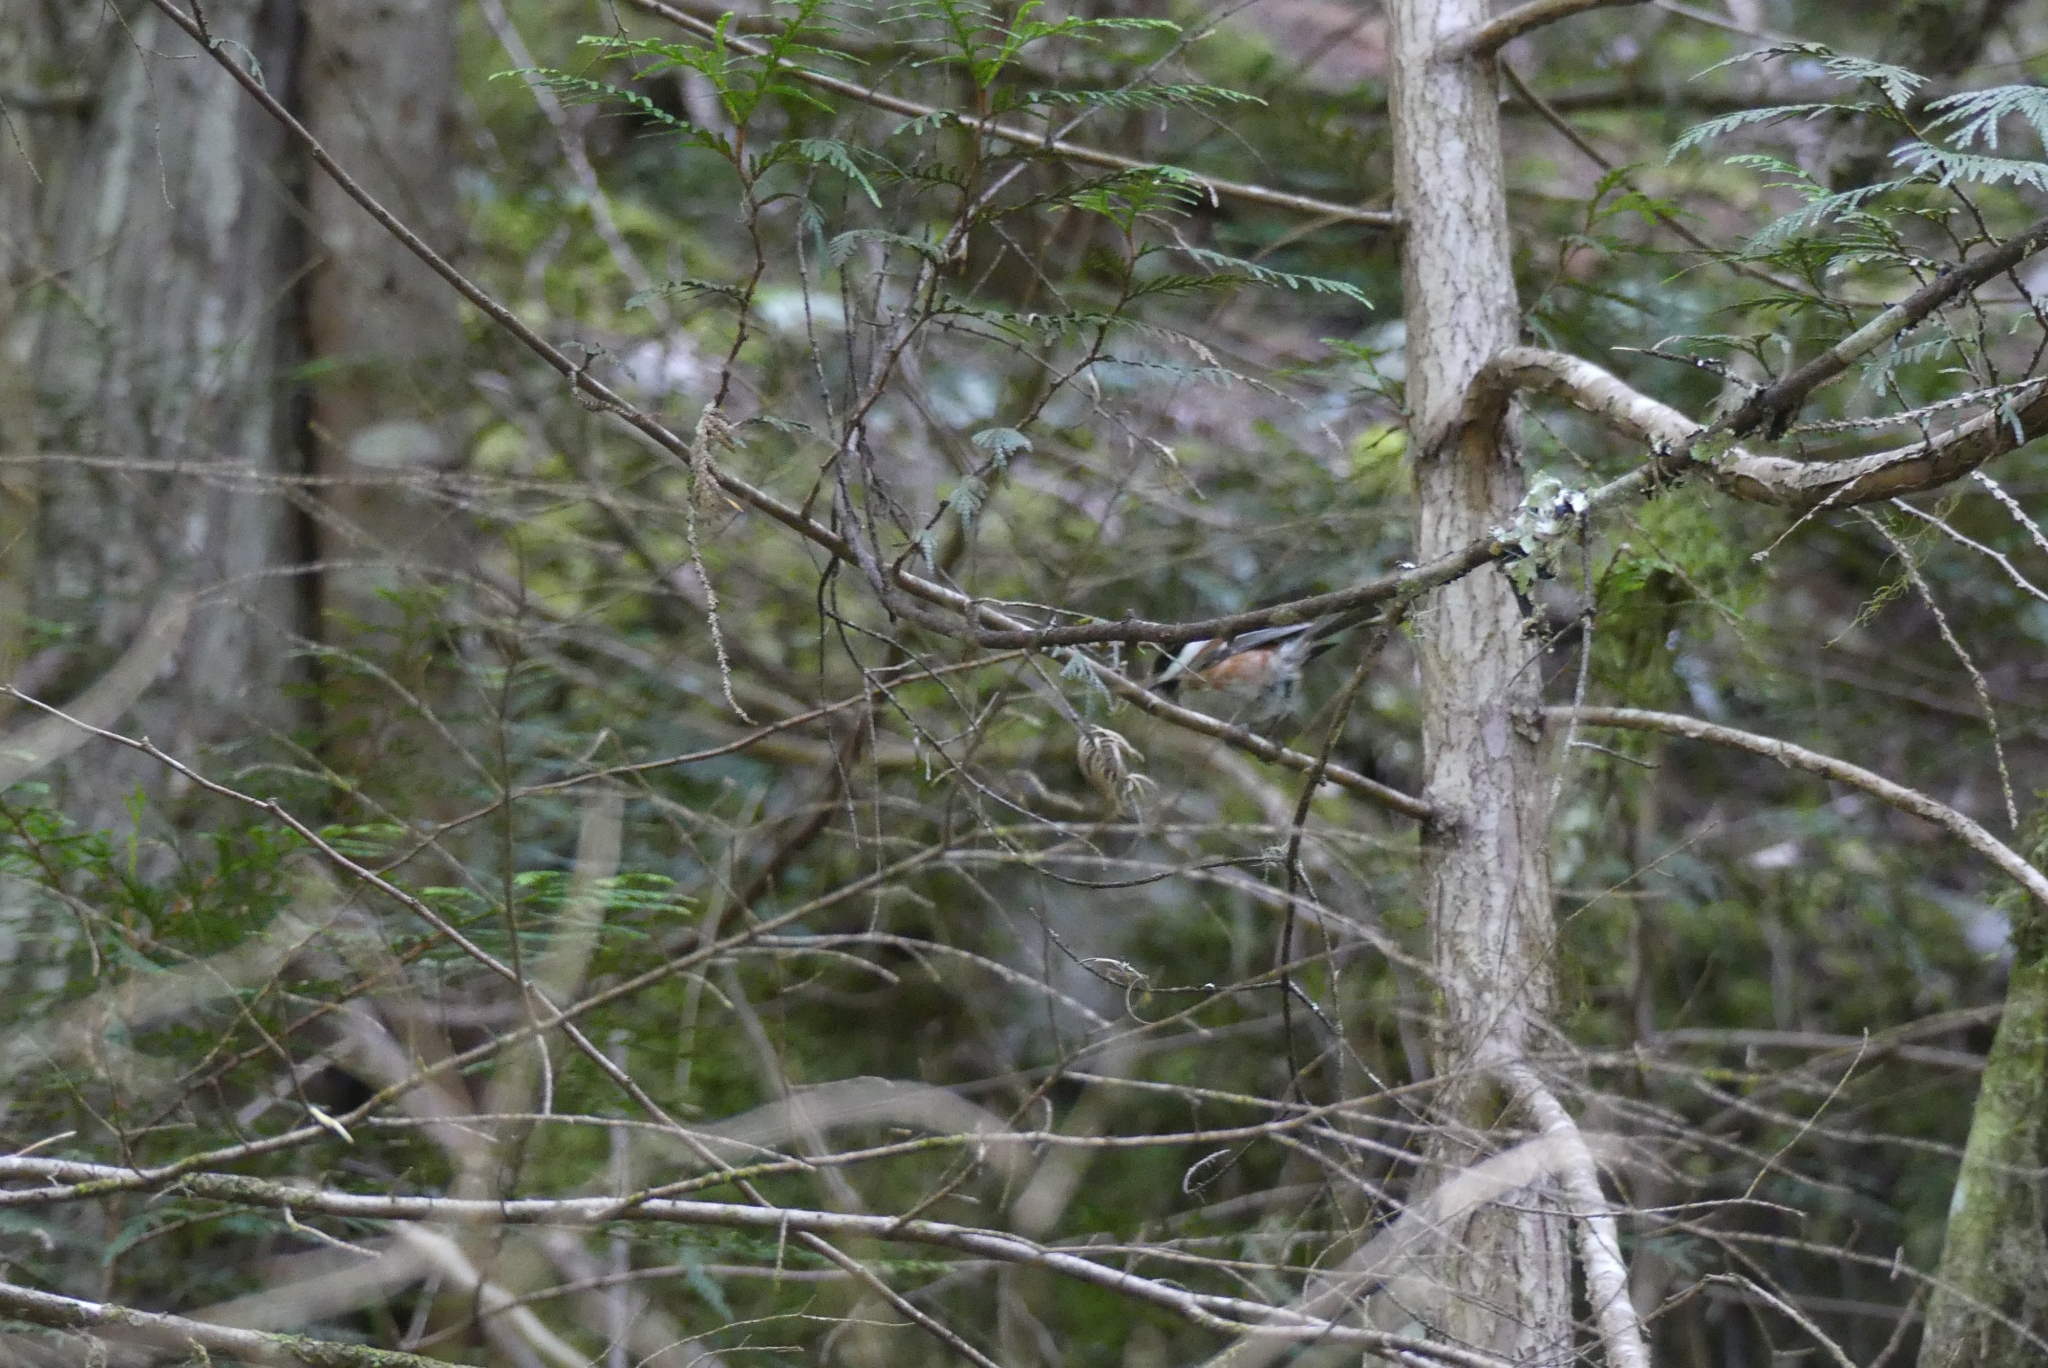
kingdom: Animalia
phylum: Chordata
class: Aves
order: Passeriformes
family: Paridae
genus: Poecile
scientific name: Poecile rufescens
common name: Chestnut-backed chickadee
